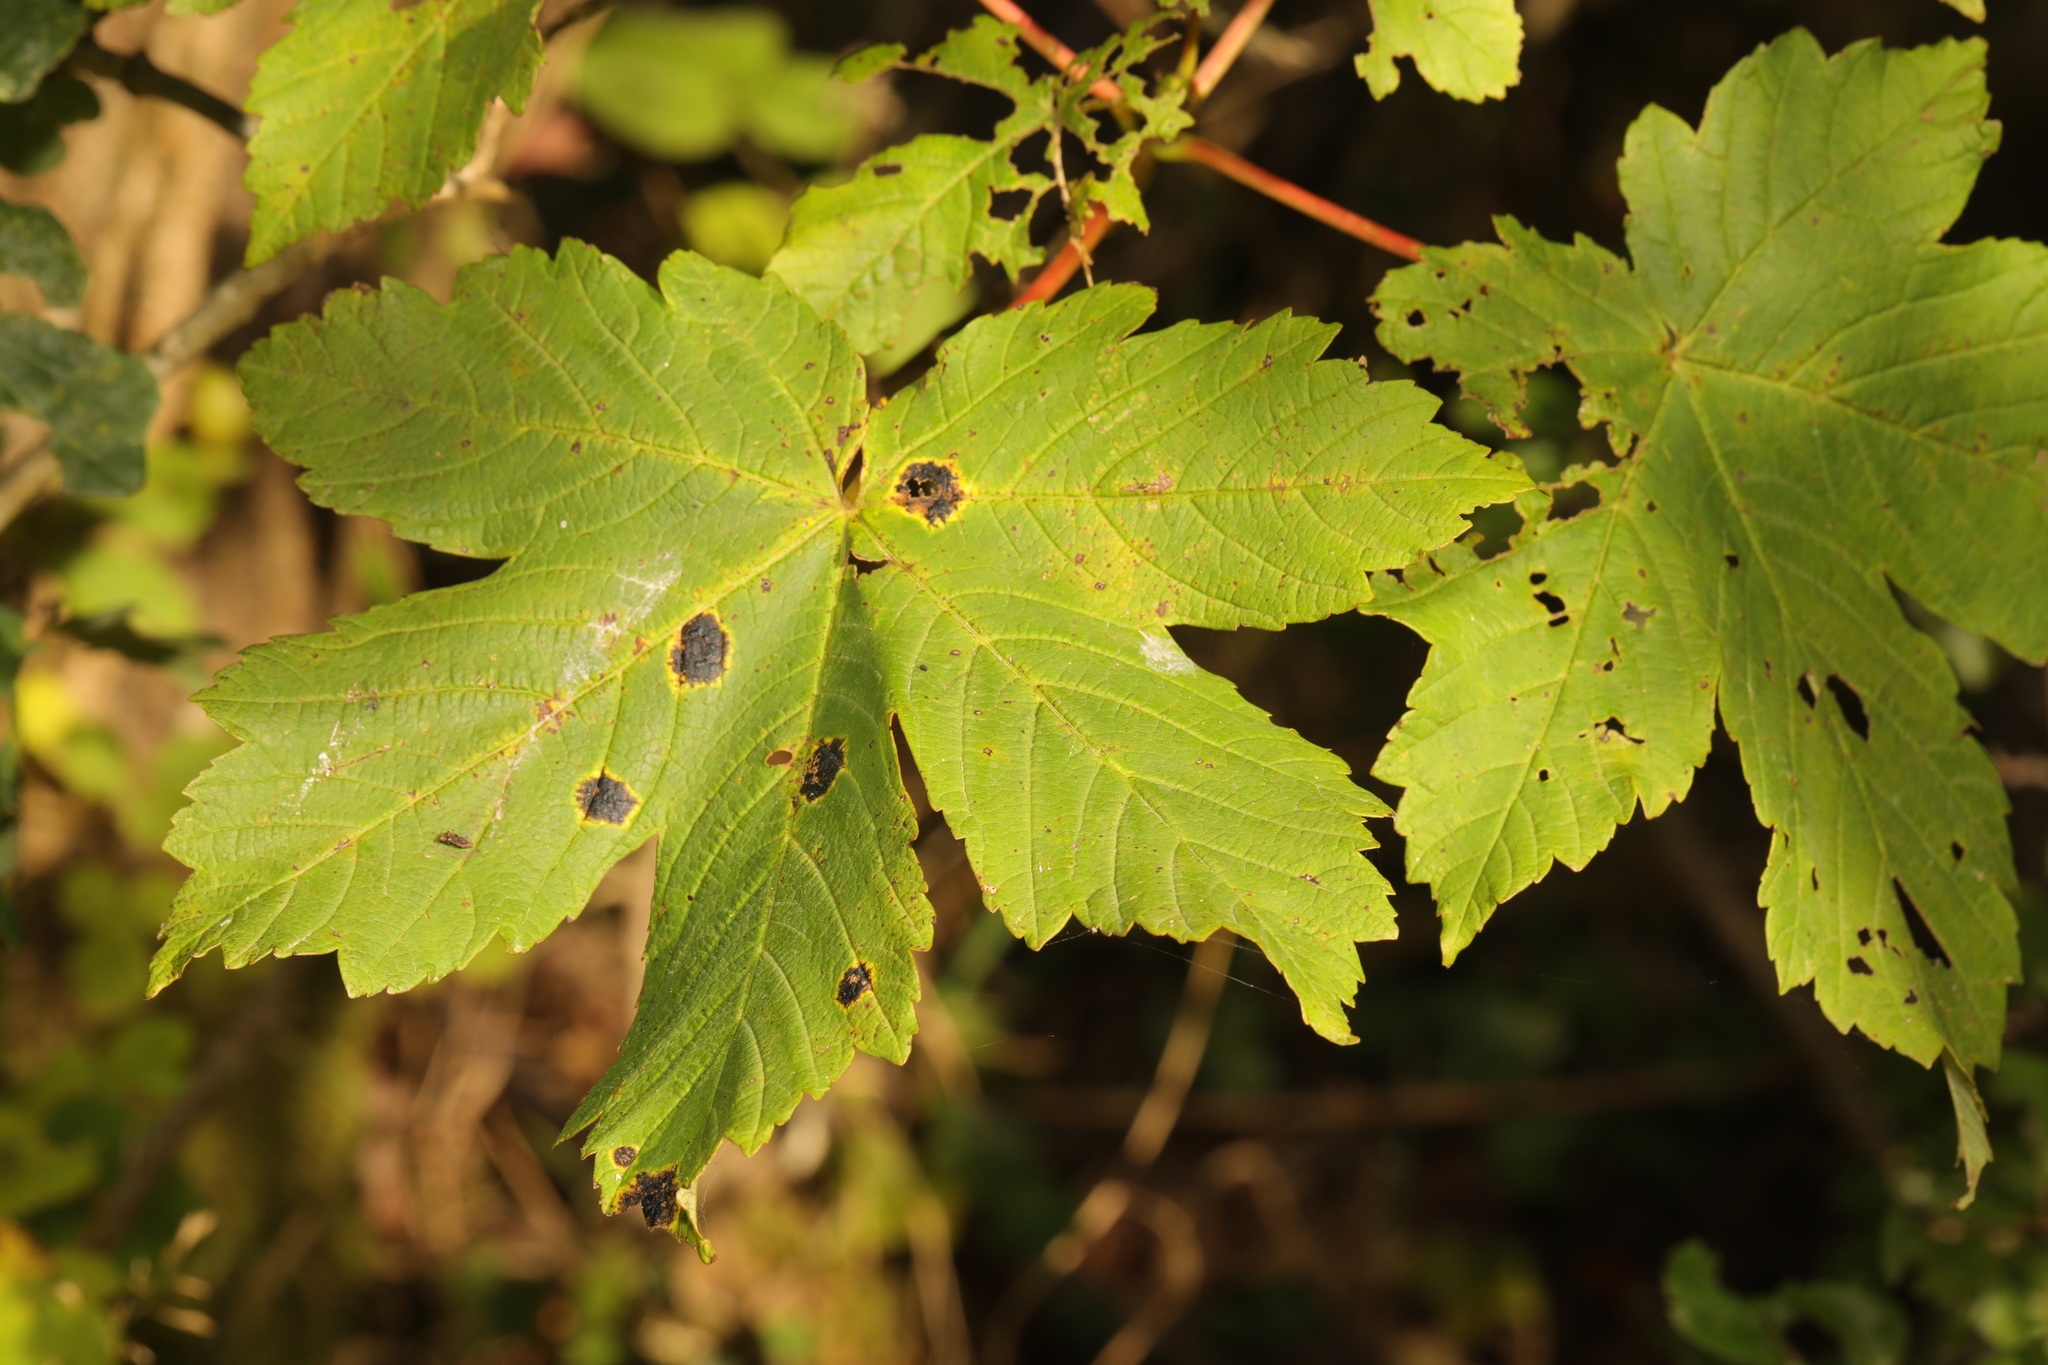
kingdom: Plantae
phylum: Tracheophyta
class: Magnoliopsida
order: Sapindales
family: Sapindaceae
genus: Acer
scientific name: Acer pseudoplatanus
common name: Sycamore
